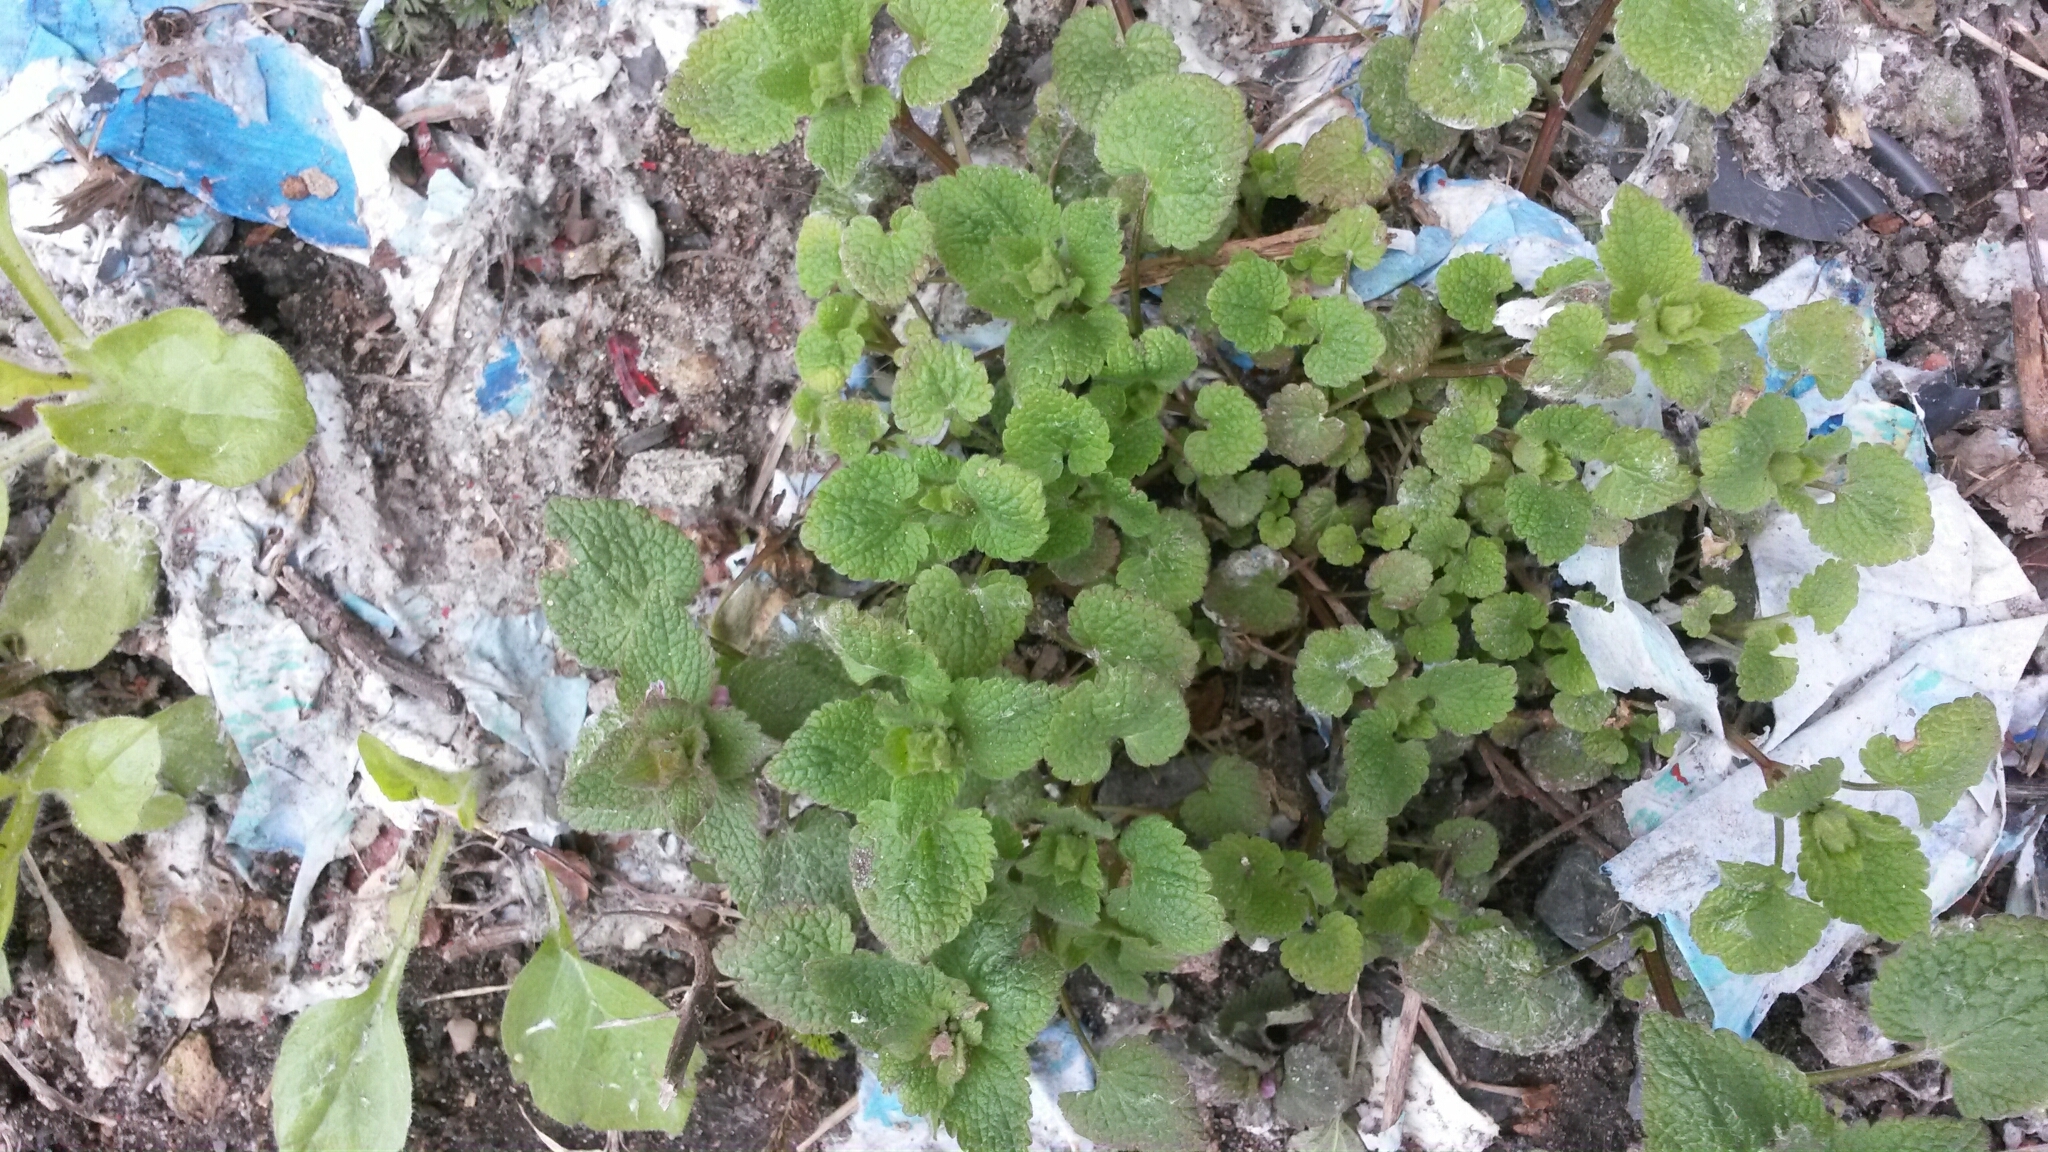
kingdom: Plantae
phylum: Tracheophyta
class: Magnoliopsida
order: Lamiales
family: Lamiaceae
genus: Lamium
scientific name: Lamium purpureum
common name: Red dead-nettle
